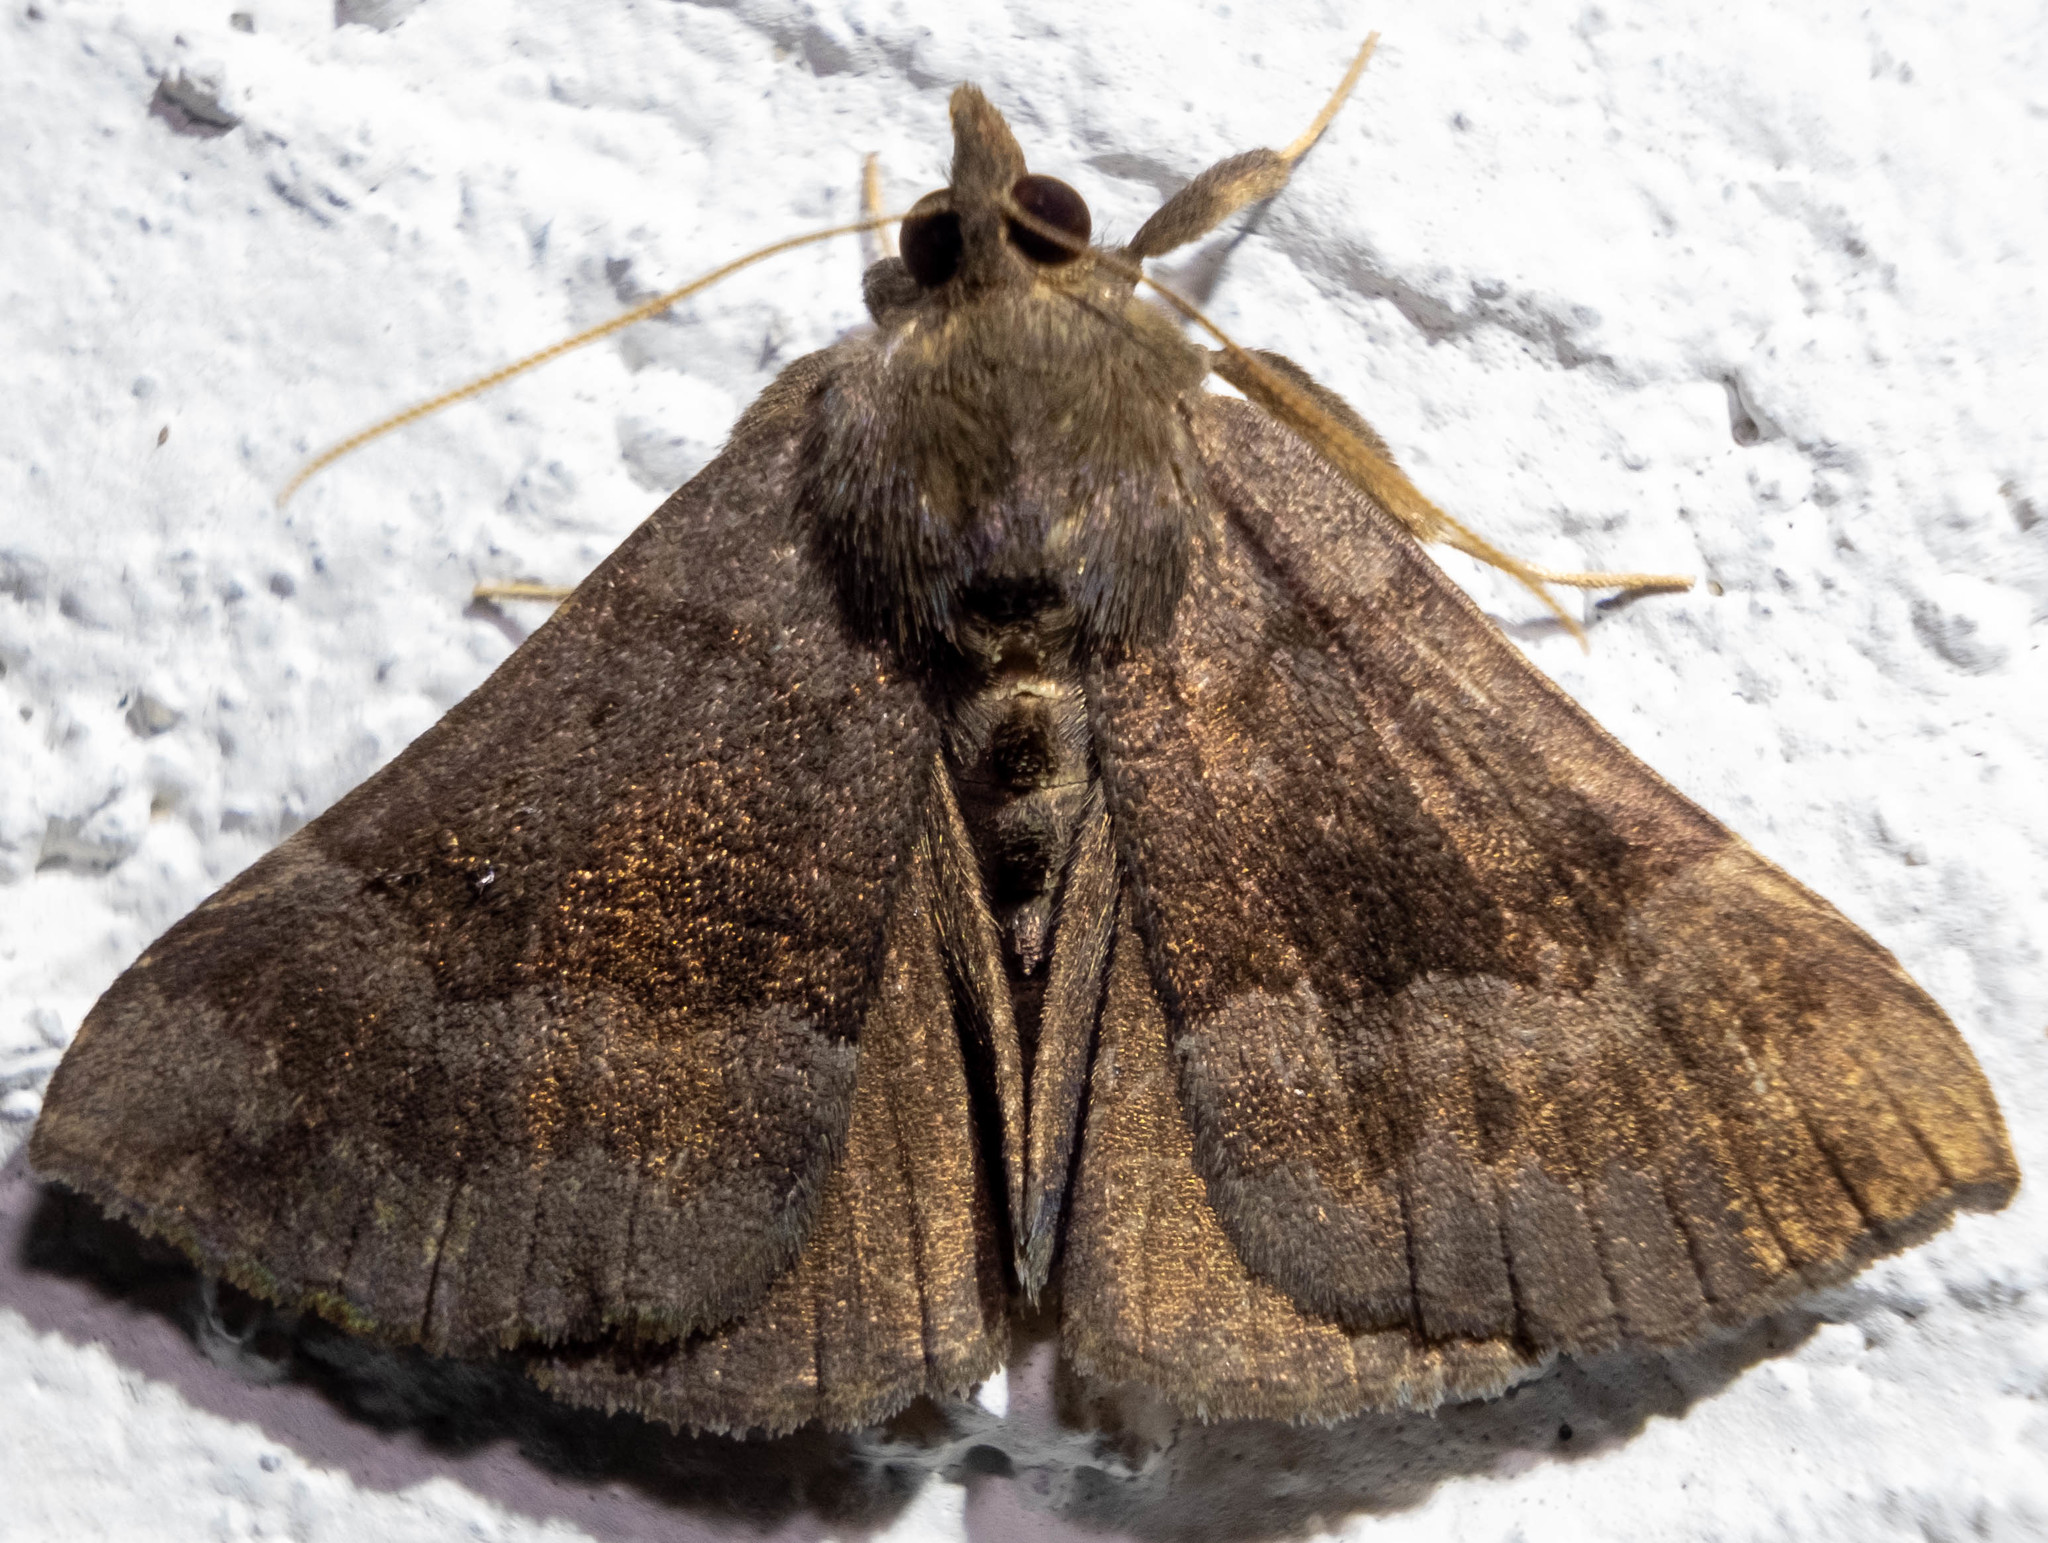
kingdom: Animalia
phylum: Arthropoda
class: Insecta
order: Lepidoptera
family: Erebidae
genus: Hypena
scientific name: Hypena madefactalis
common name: Gray-edged snout
